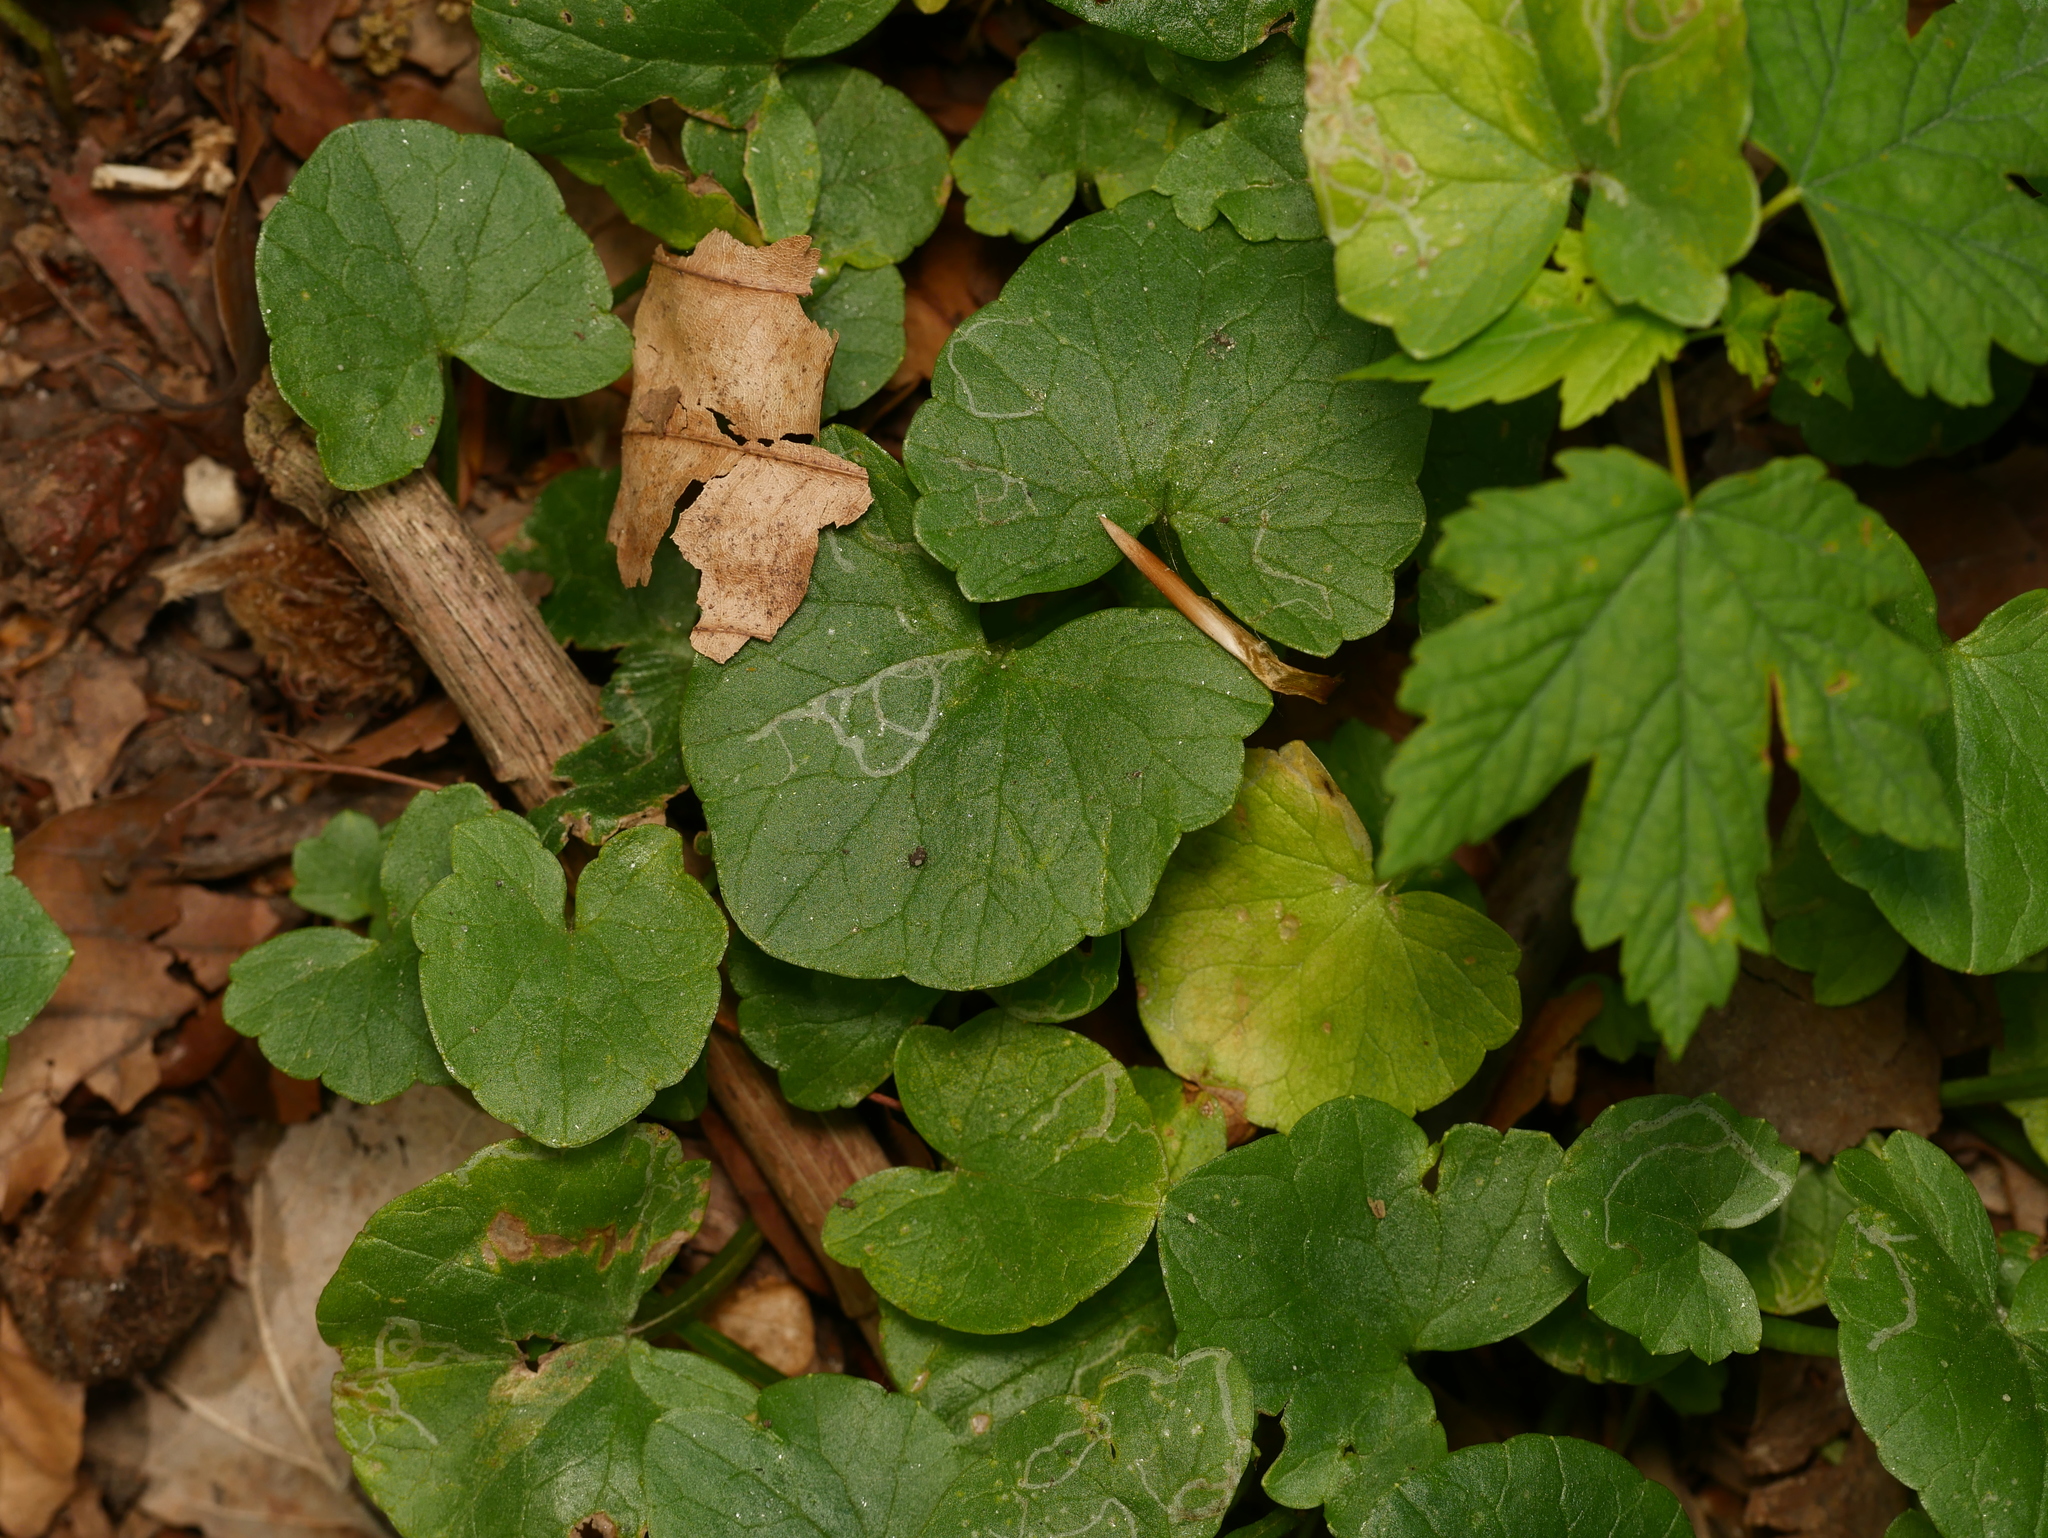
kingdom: Plantae
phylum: Tracheophyta
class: Magnoliopsida
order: Ranunculales
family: Ranunculaceae
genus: Ficaria
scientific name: Ficaria verna
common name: Lesser celandine
